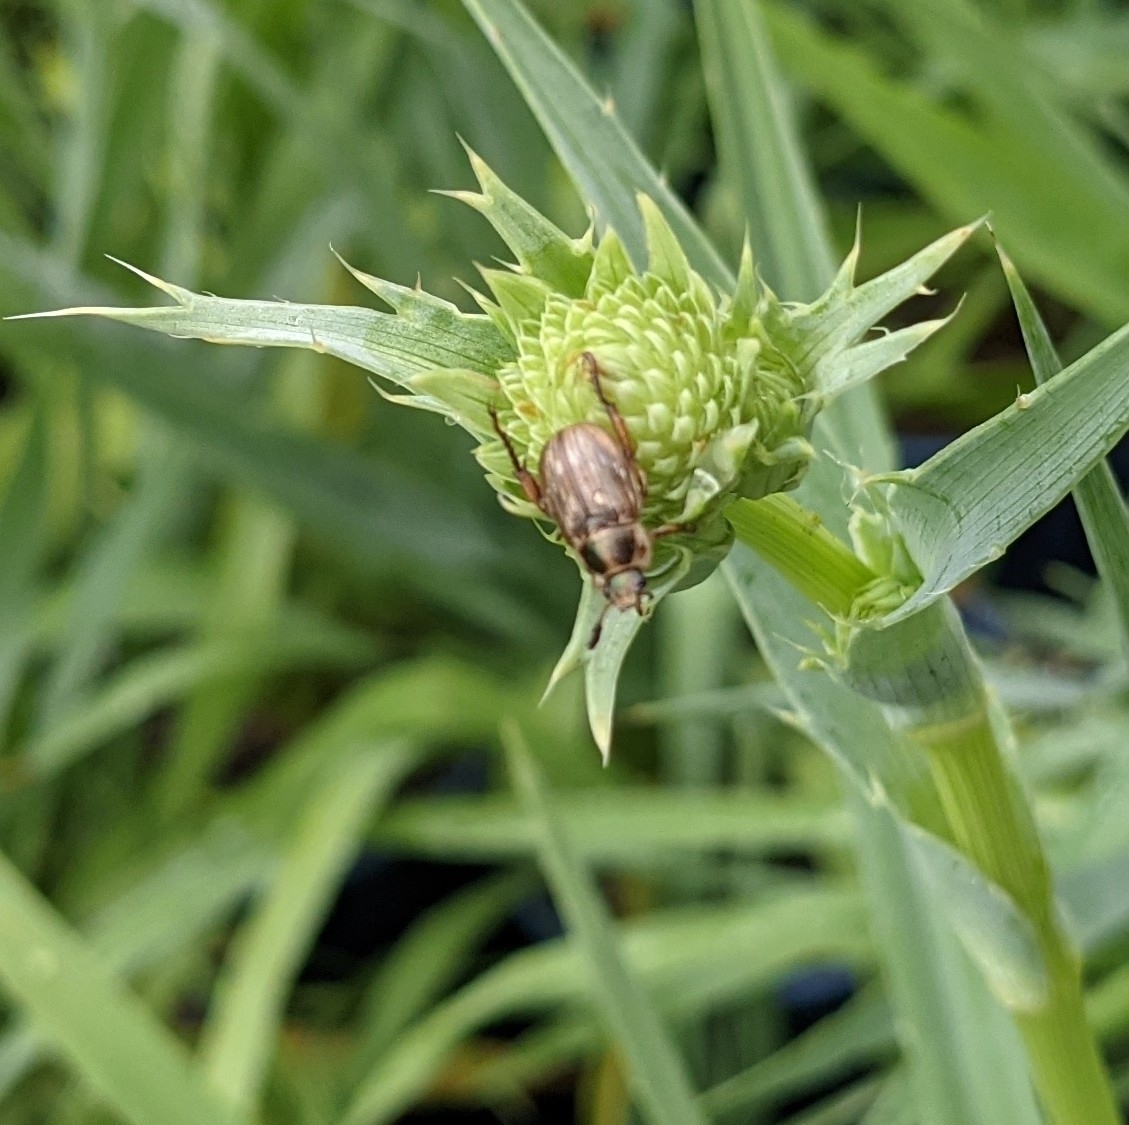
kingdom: Animalia
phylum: Arthropoda
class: Insecta
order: Coleoptera
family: Scarabaeidae
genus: Exomala
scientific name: Exomala orientalis
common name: Oriental beetle
